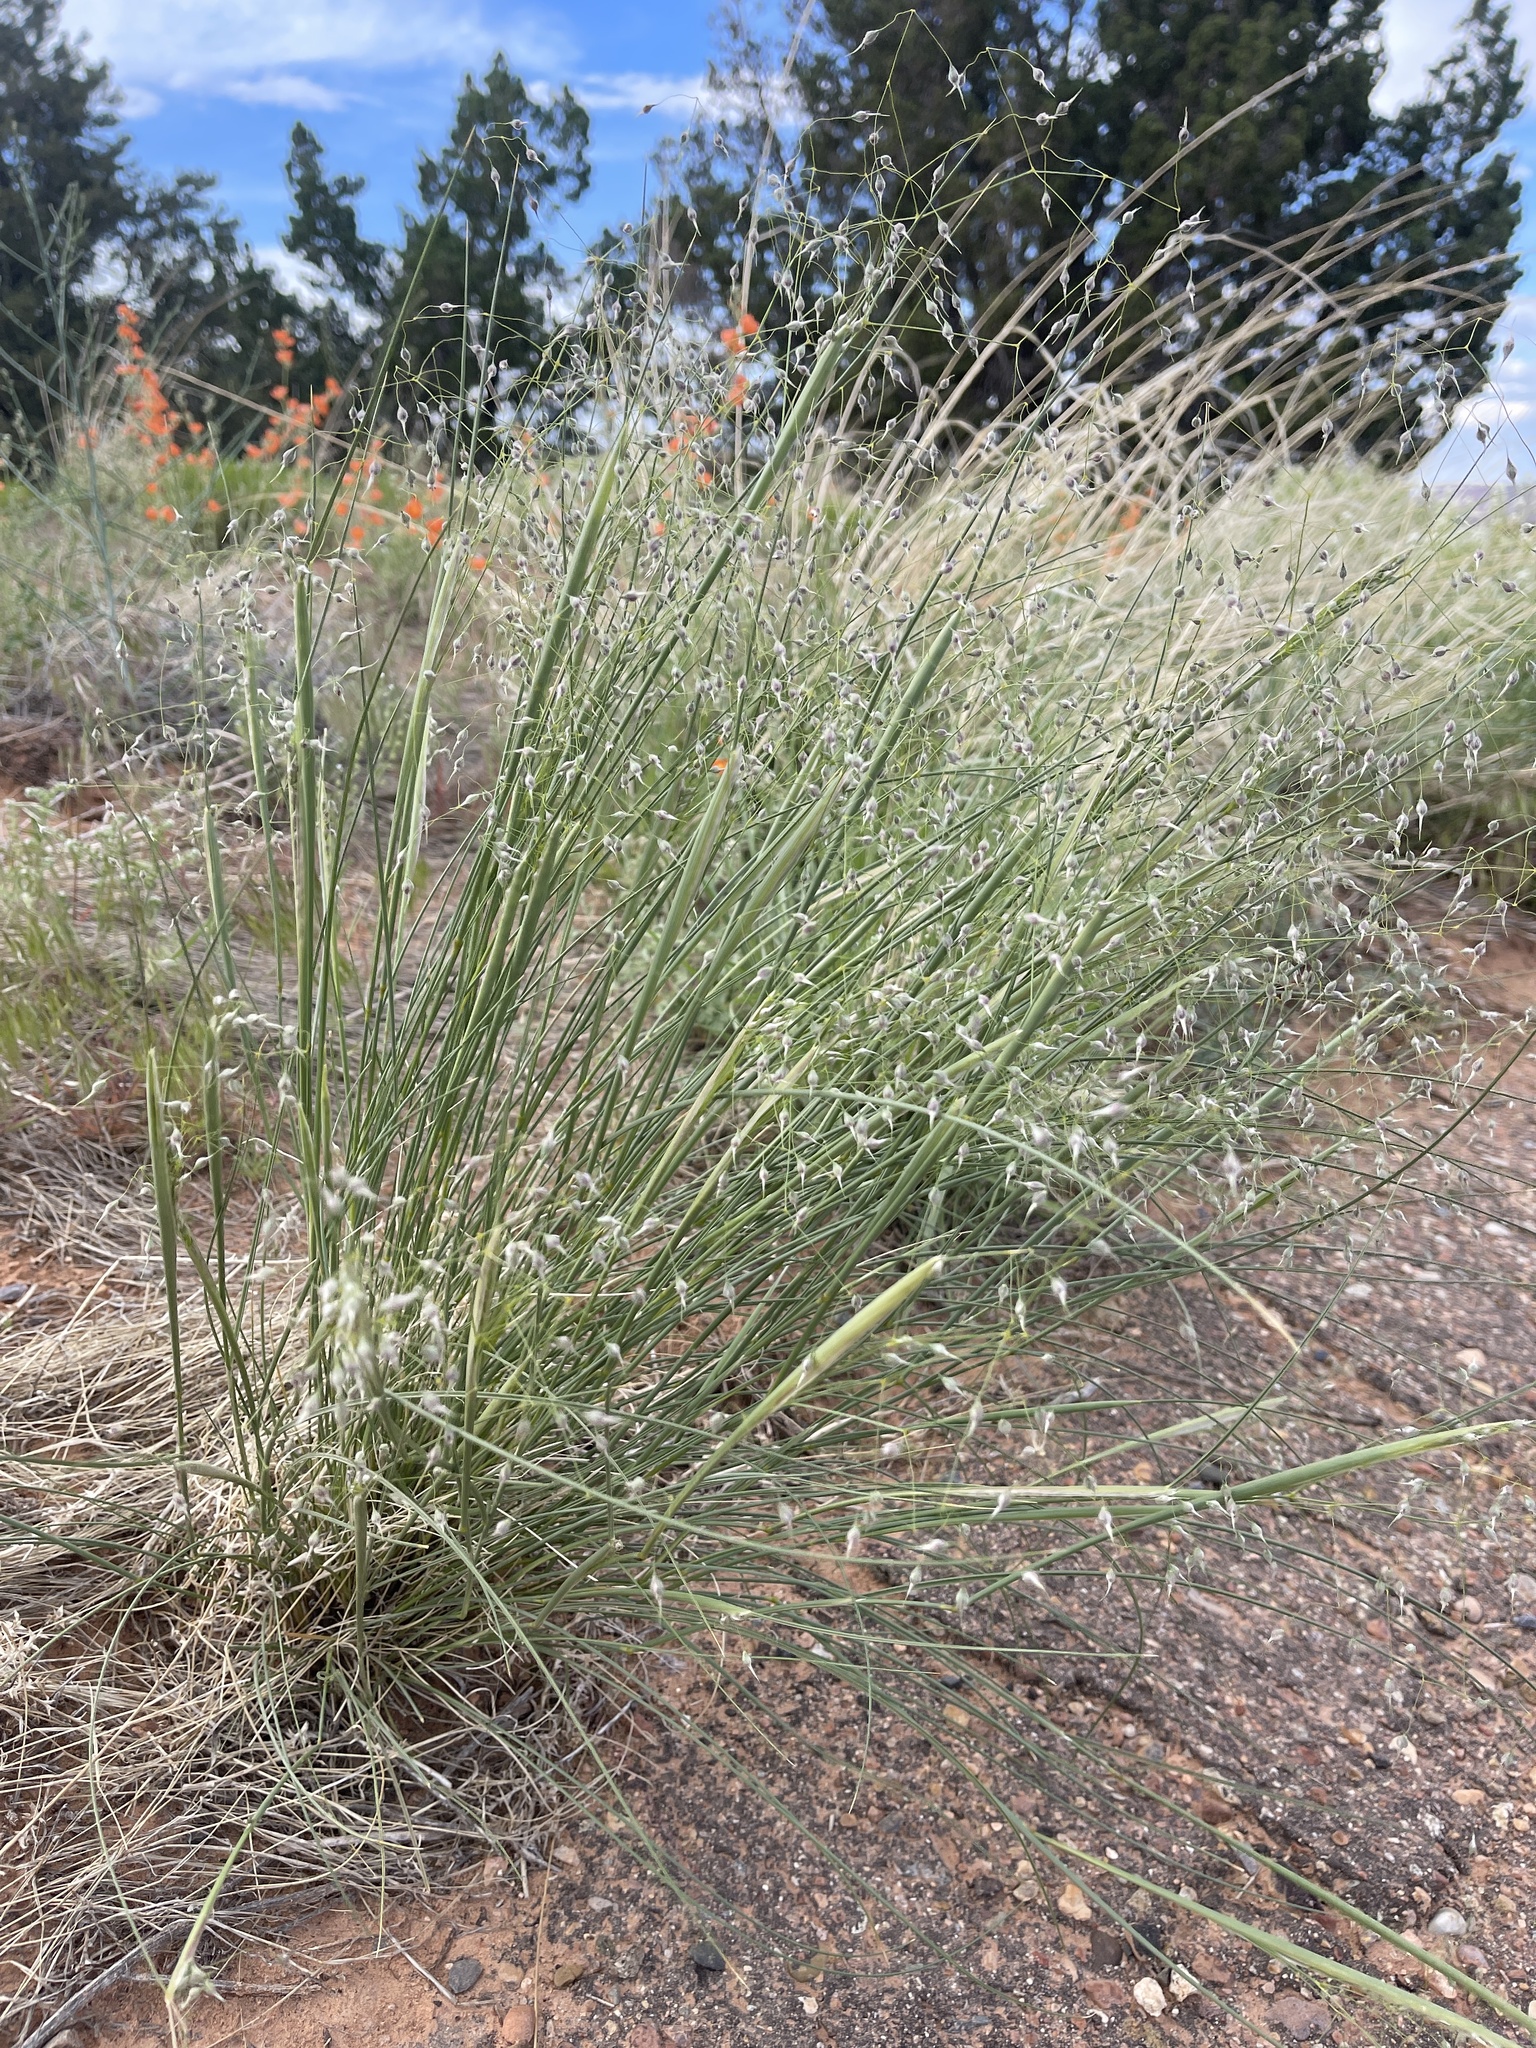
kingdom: Plantae
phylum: Tracheophyta
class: Liliopsida
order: Poales
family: Poaceae
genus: Eriocoma
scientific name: Eriocoma hymenoides
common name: Indian mountain ricegrass
